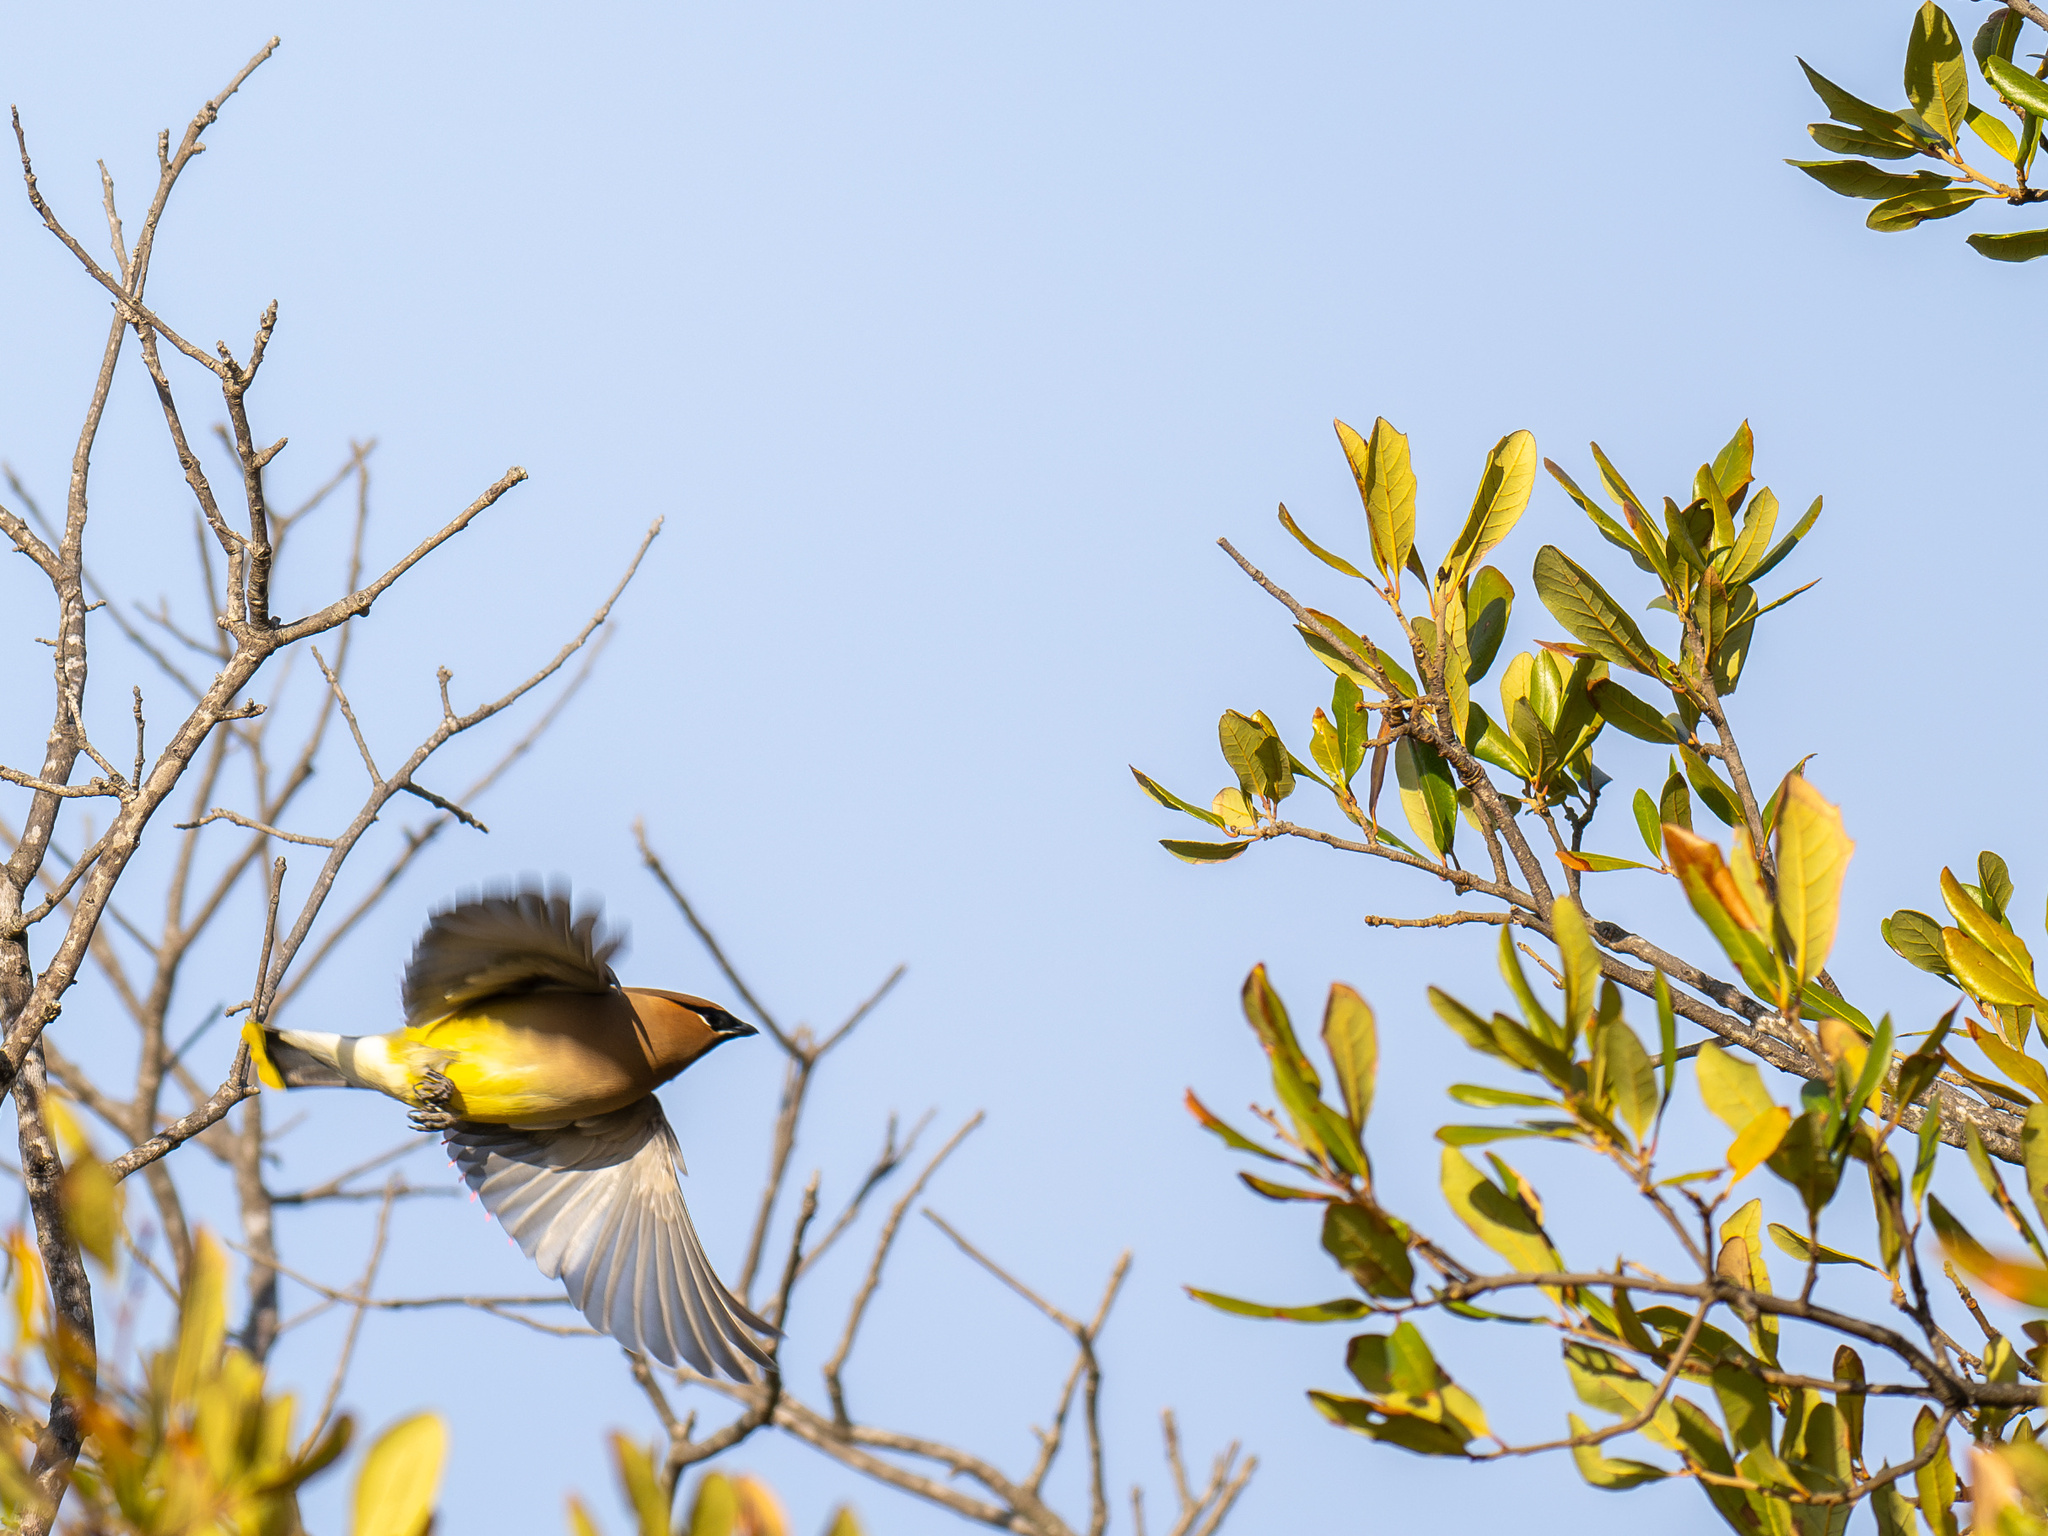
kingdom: Animalia
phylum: Chordata
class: Aves
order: Passeriformes
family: Bombycillidae
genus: Bombycilla
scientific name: Bombycilla cedrorum
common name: Cedar waxwing
